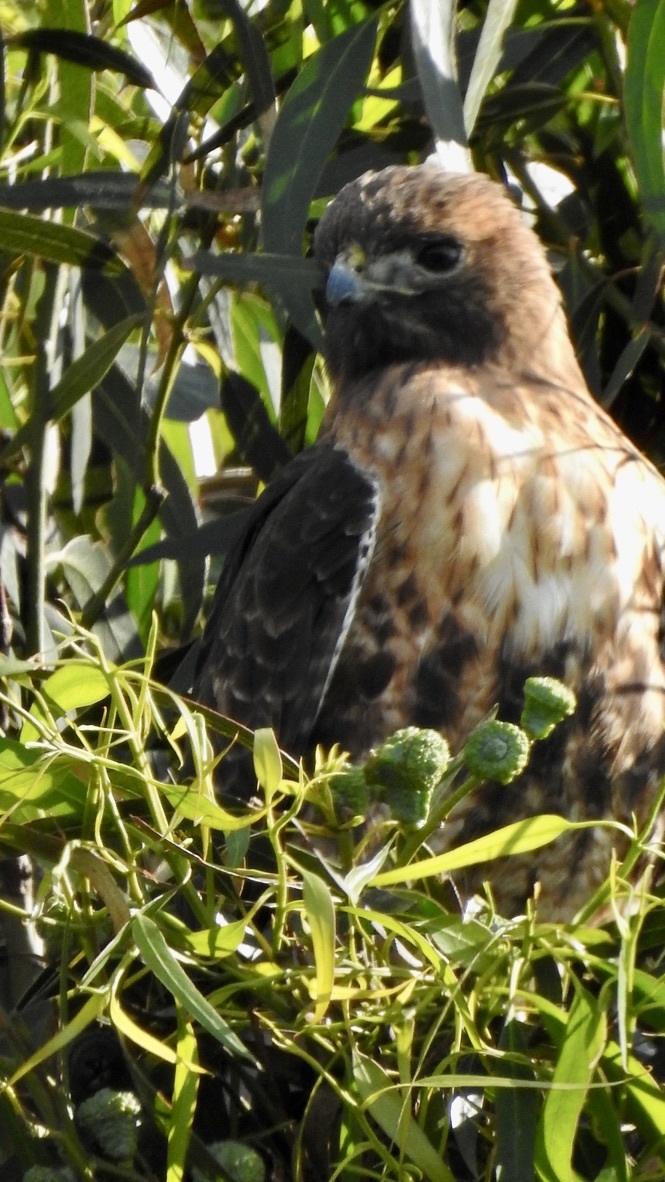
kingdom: Animalia
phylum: Chordata
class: Aves
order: Accipitriformes
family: Accipitridae
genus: Buteo
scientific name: Buteo jamaicensis
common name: Red-tailed hawk
